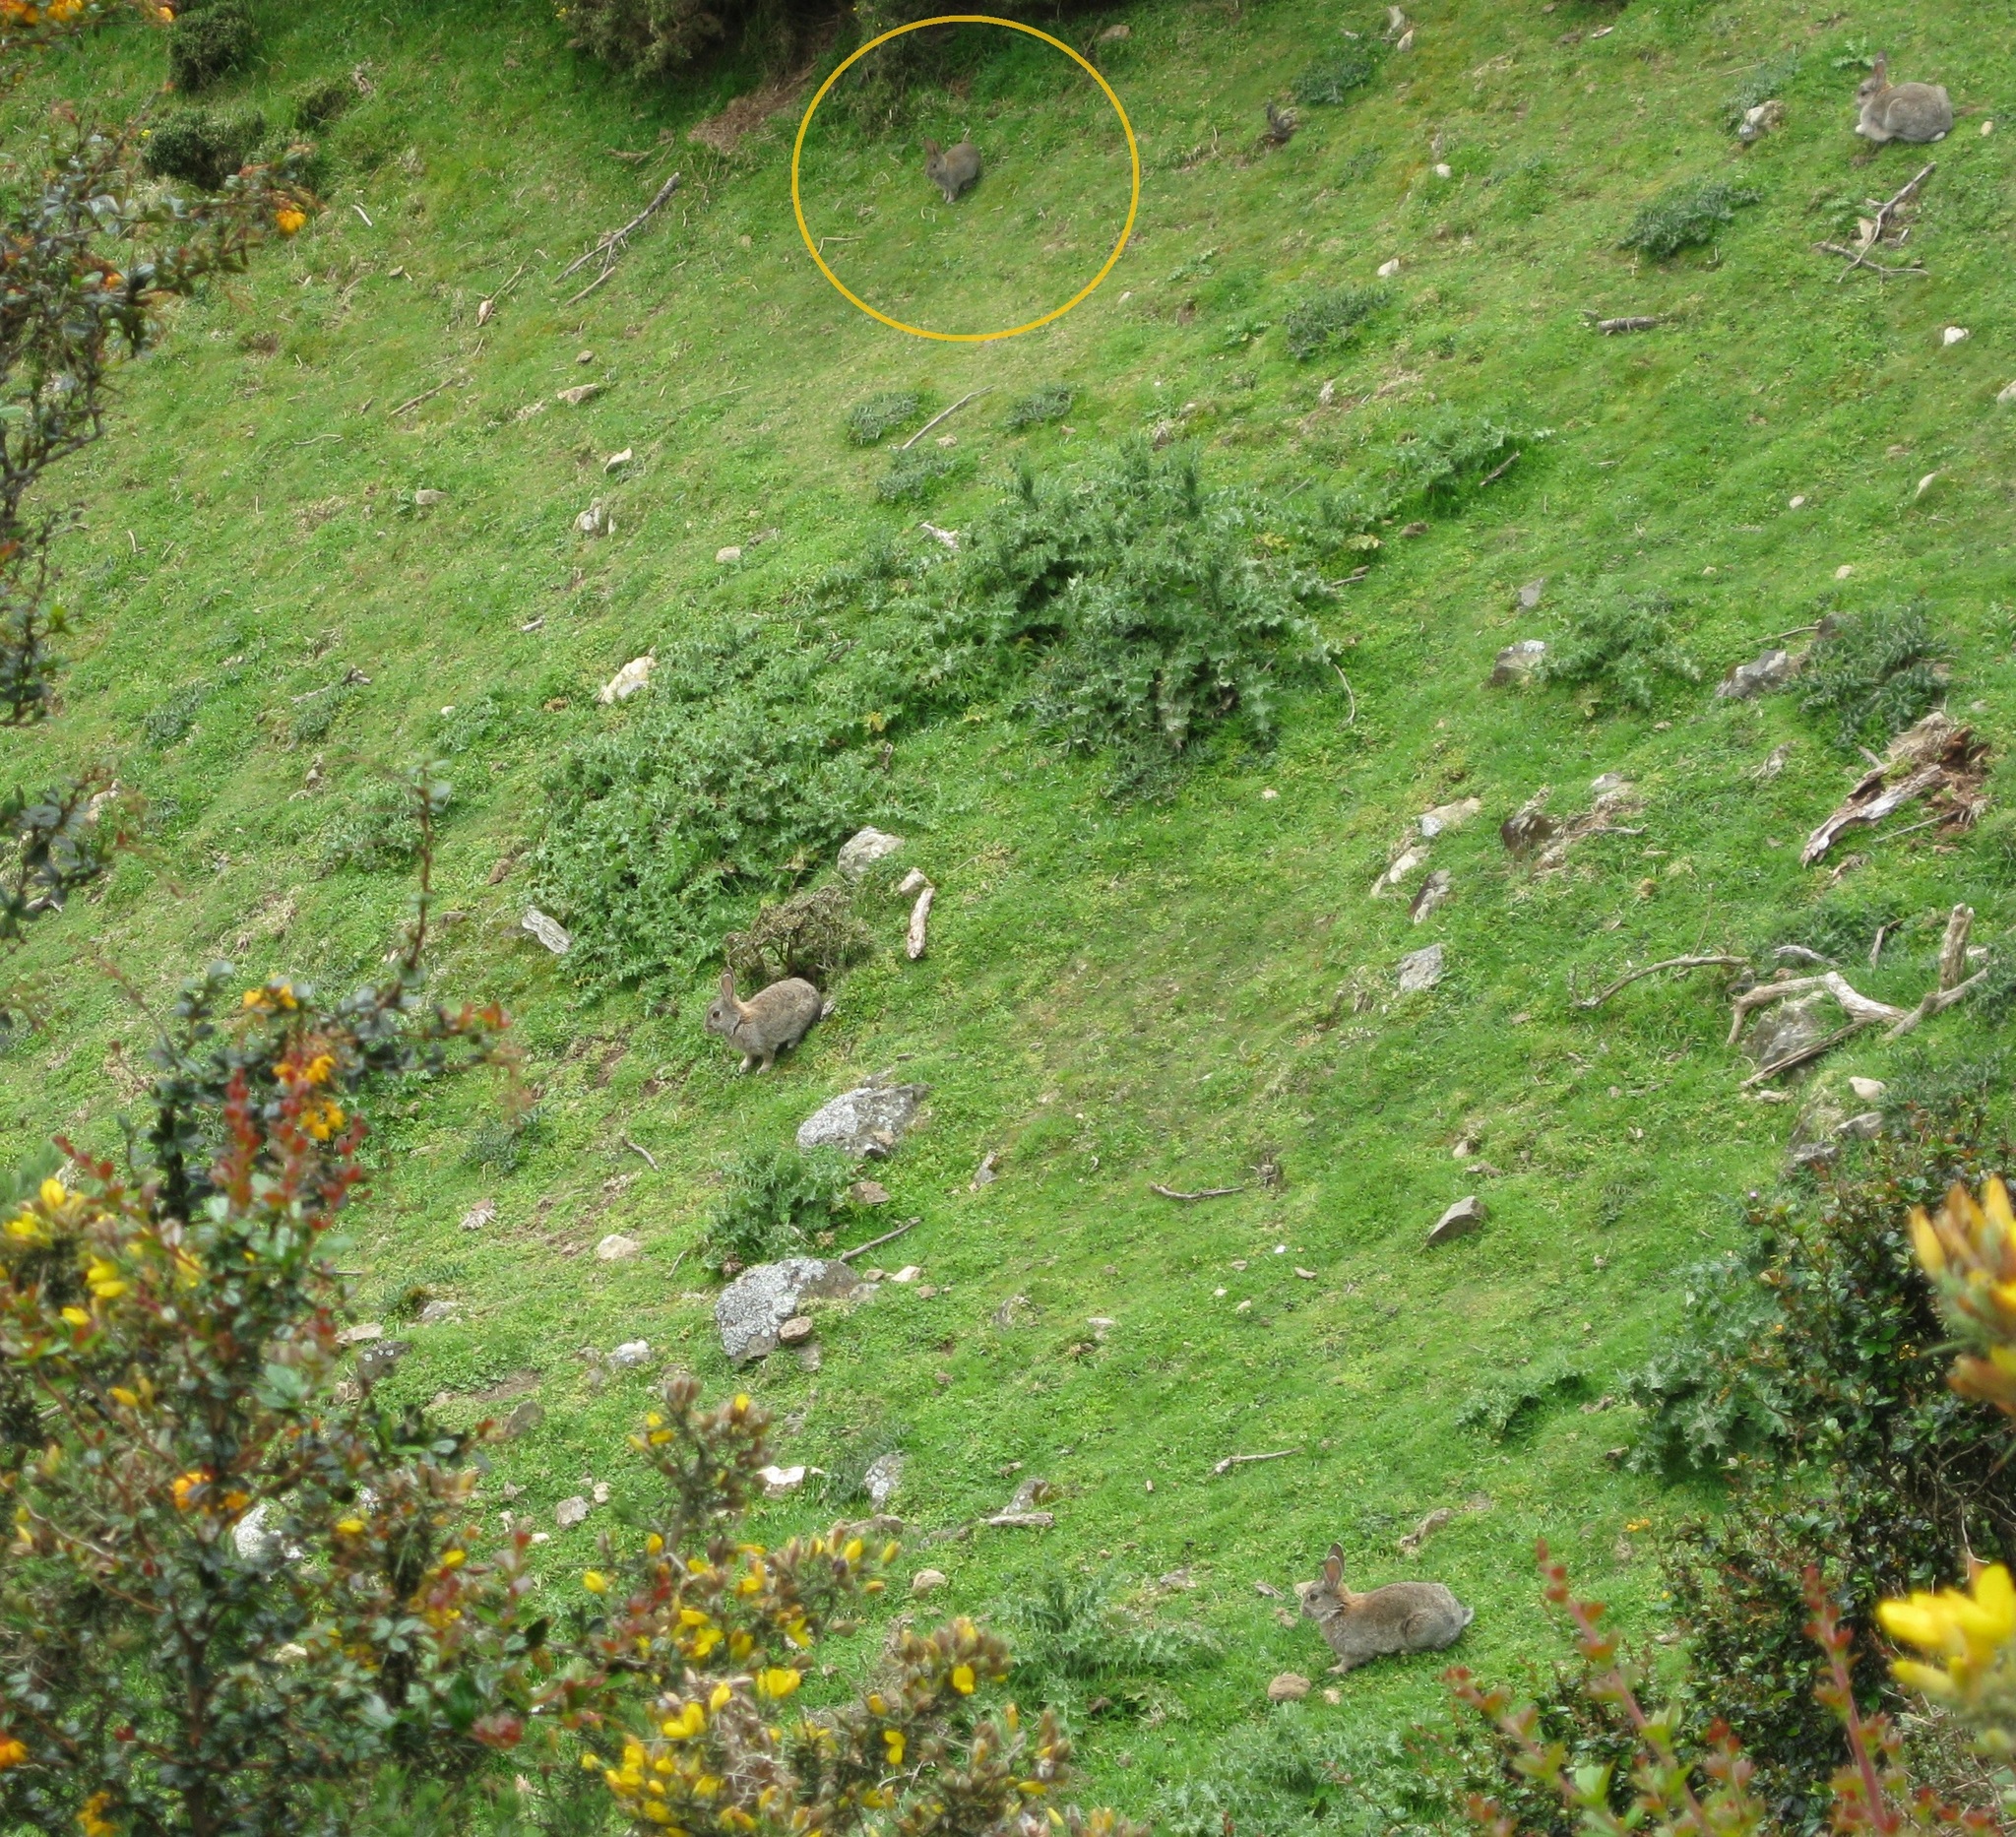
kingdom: Animalia
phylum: Chordata
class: Mammalia
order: Lagomorpha
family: Leporidae
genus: Oryctolagus
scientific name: Oryctolagus cuniculus
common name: European rabbit
